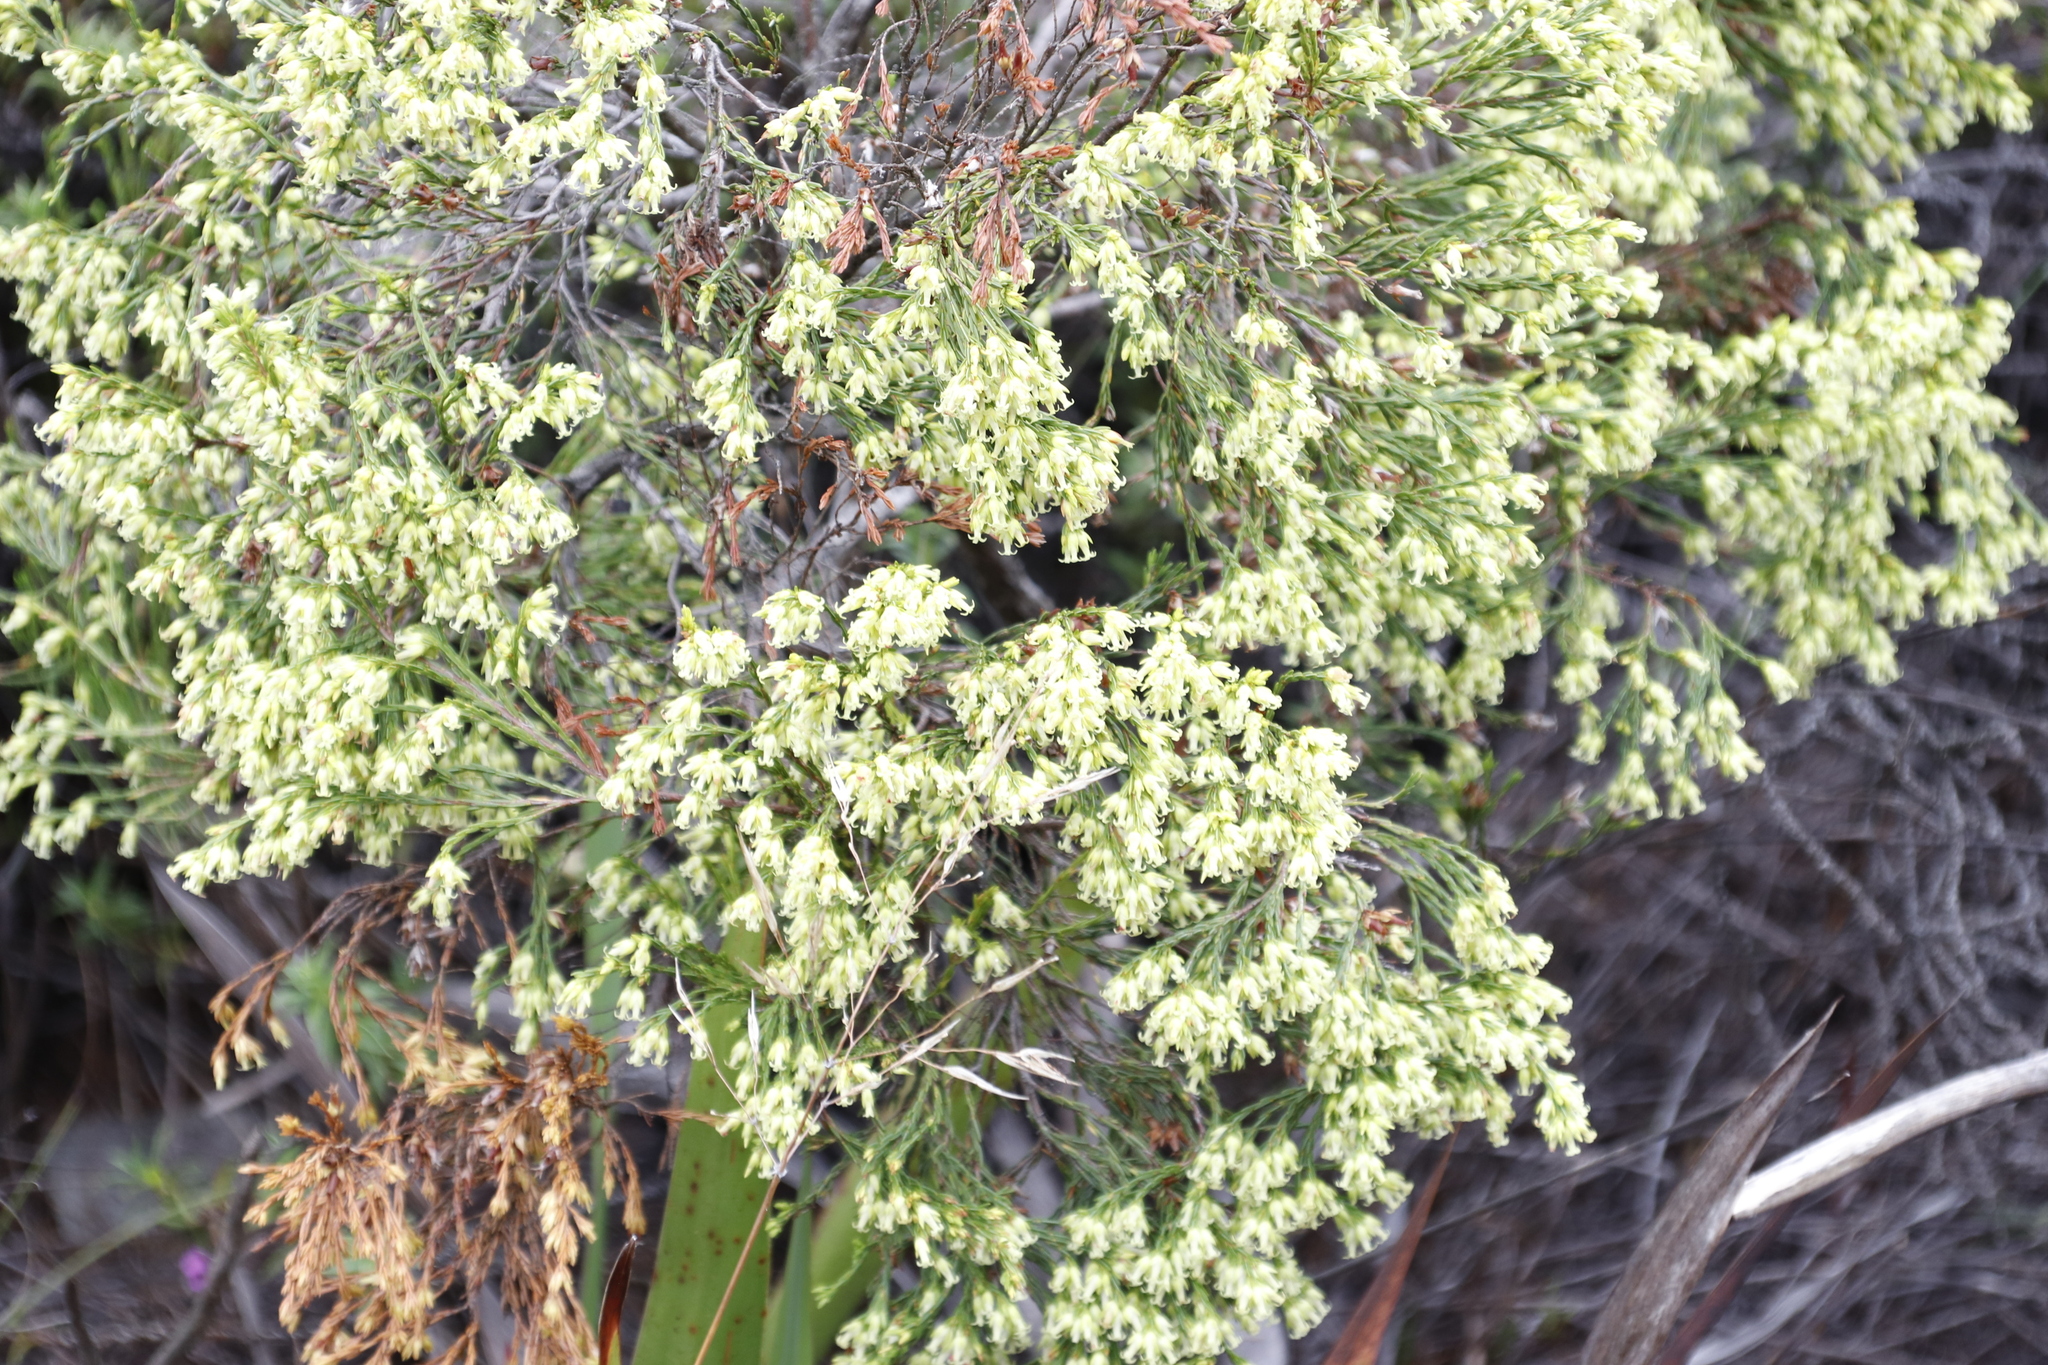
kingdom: Plantae
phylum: Tracheophyta
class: Magnoliopsida
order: Ericales
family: Ericaceae
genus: Erica
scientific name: Erica lutea
